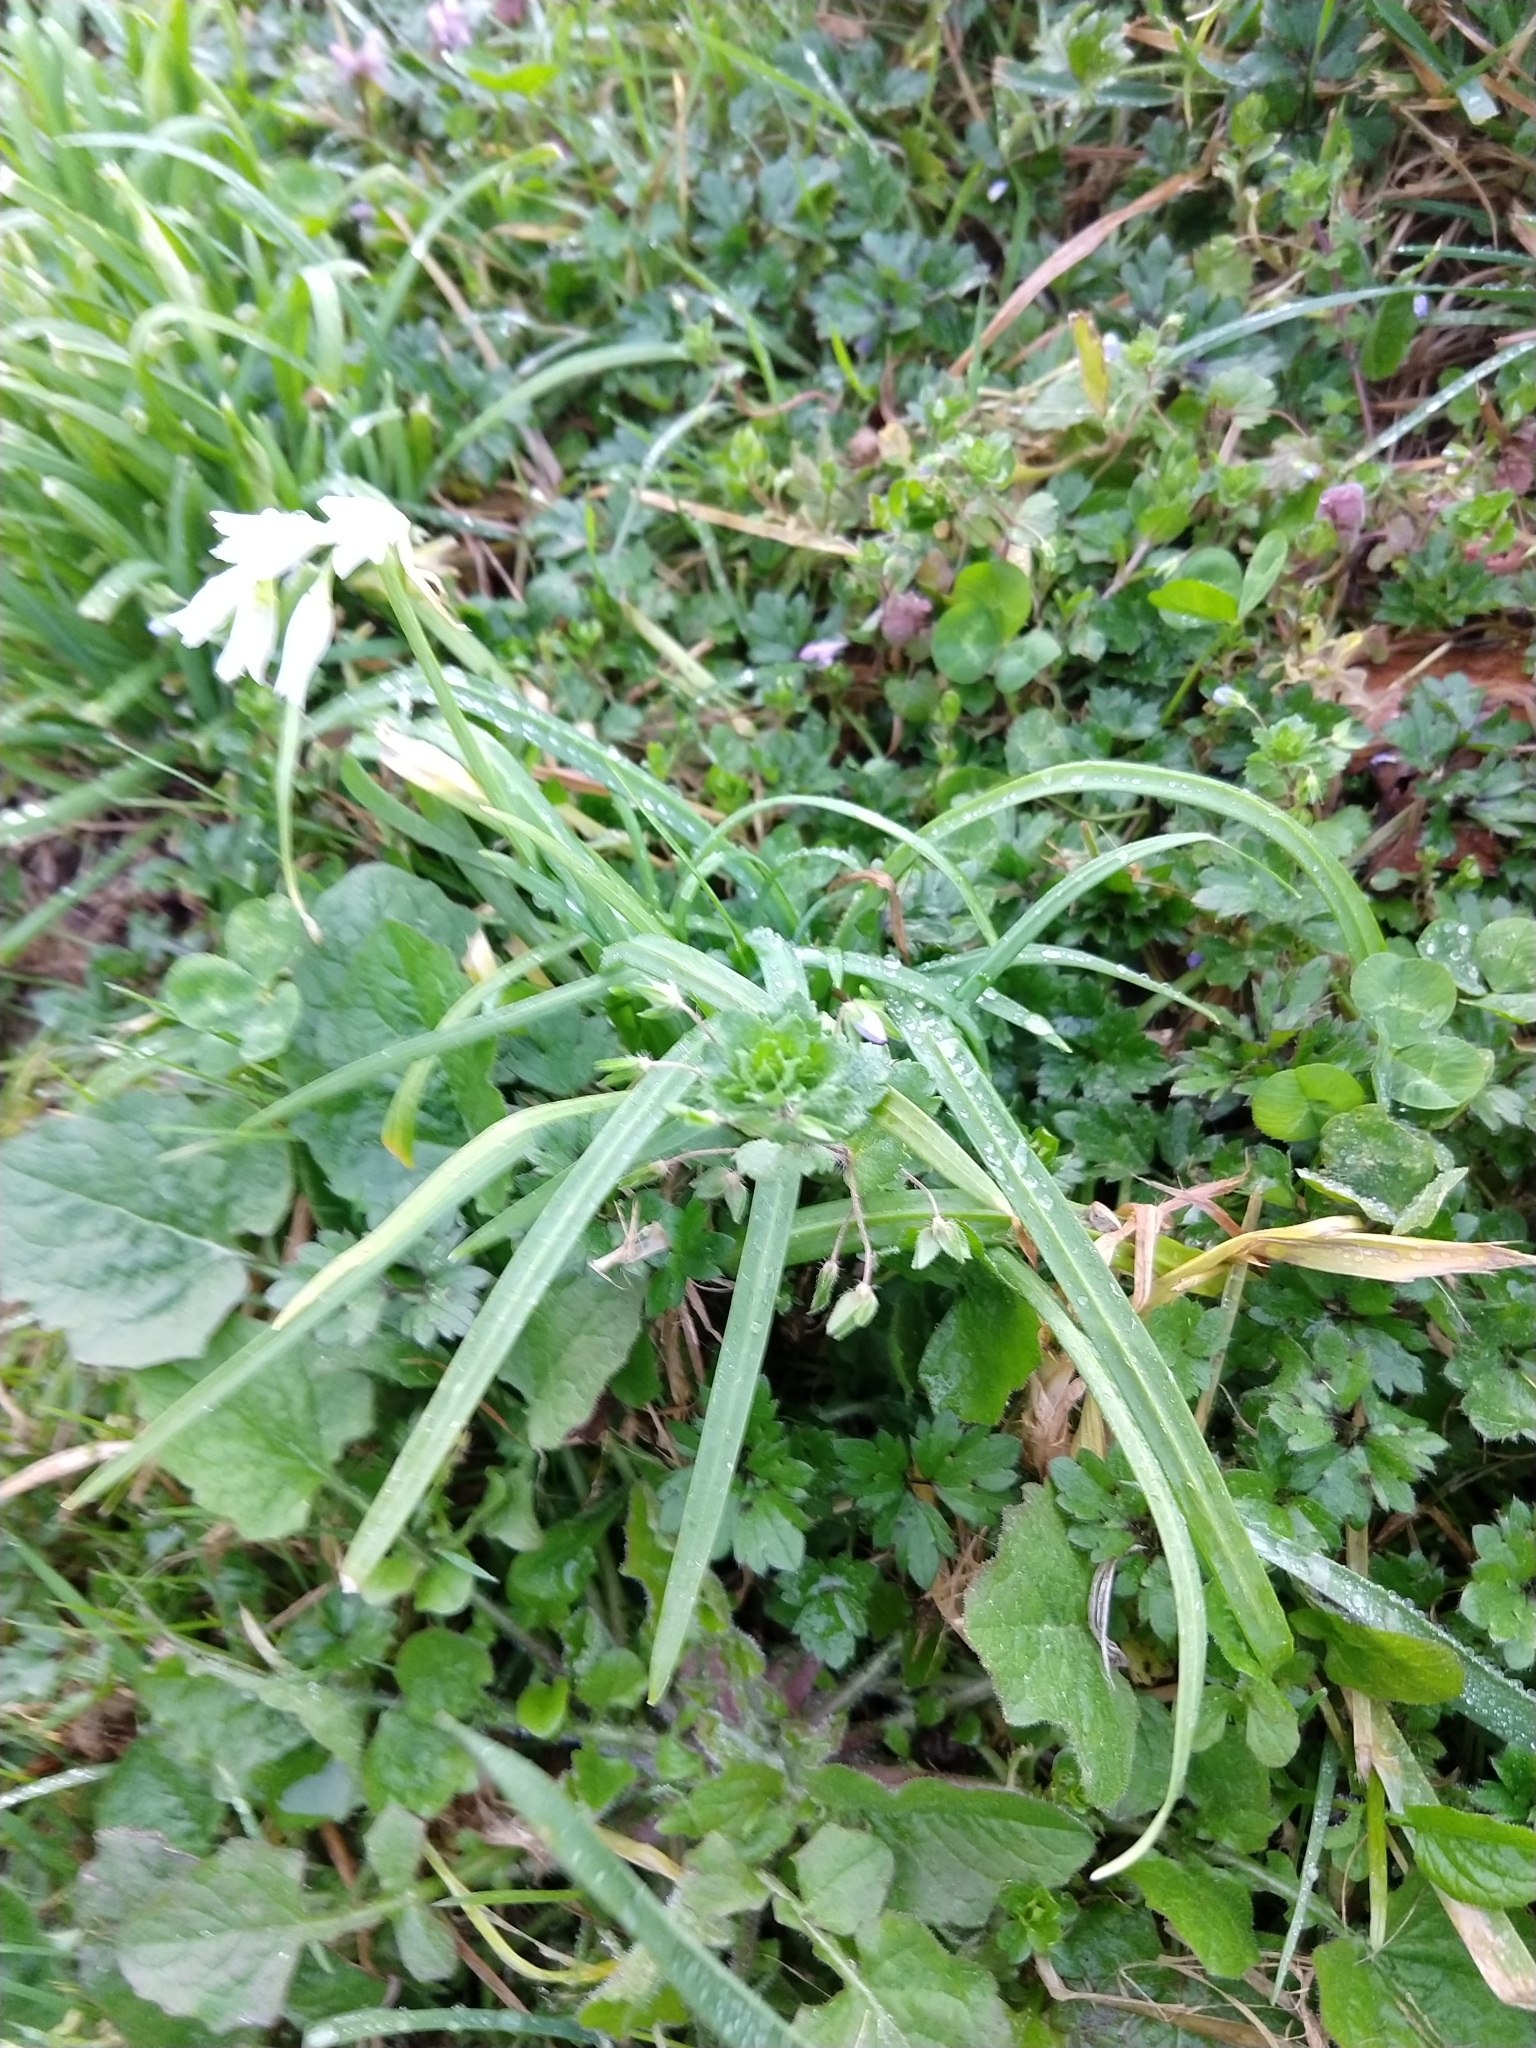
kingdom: Plantae
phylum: Tracheophyta
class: Liliopsida
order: Asparagales
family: Amaryllidaceae
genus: Allium
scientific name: Allium triquetrum
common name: Three-cornered garlic
